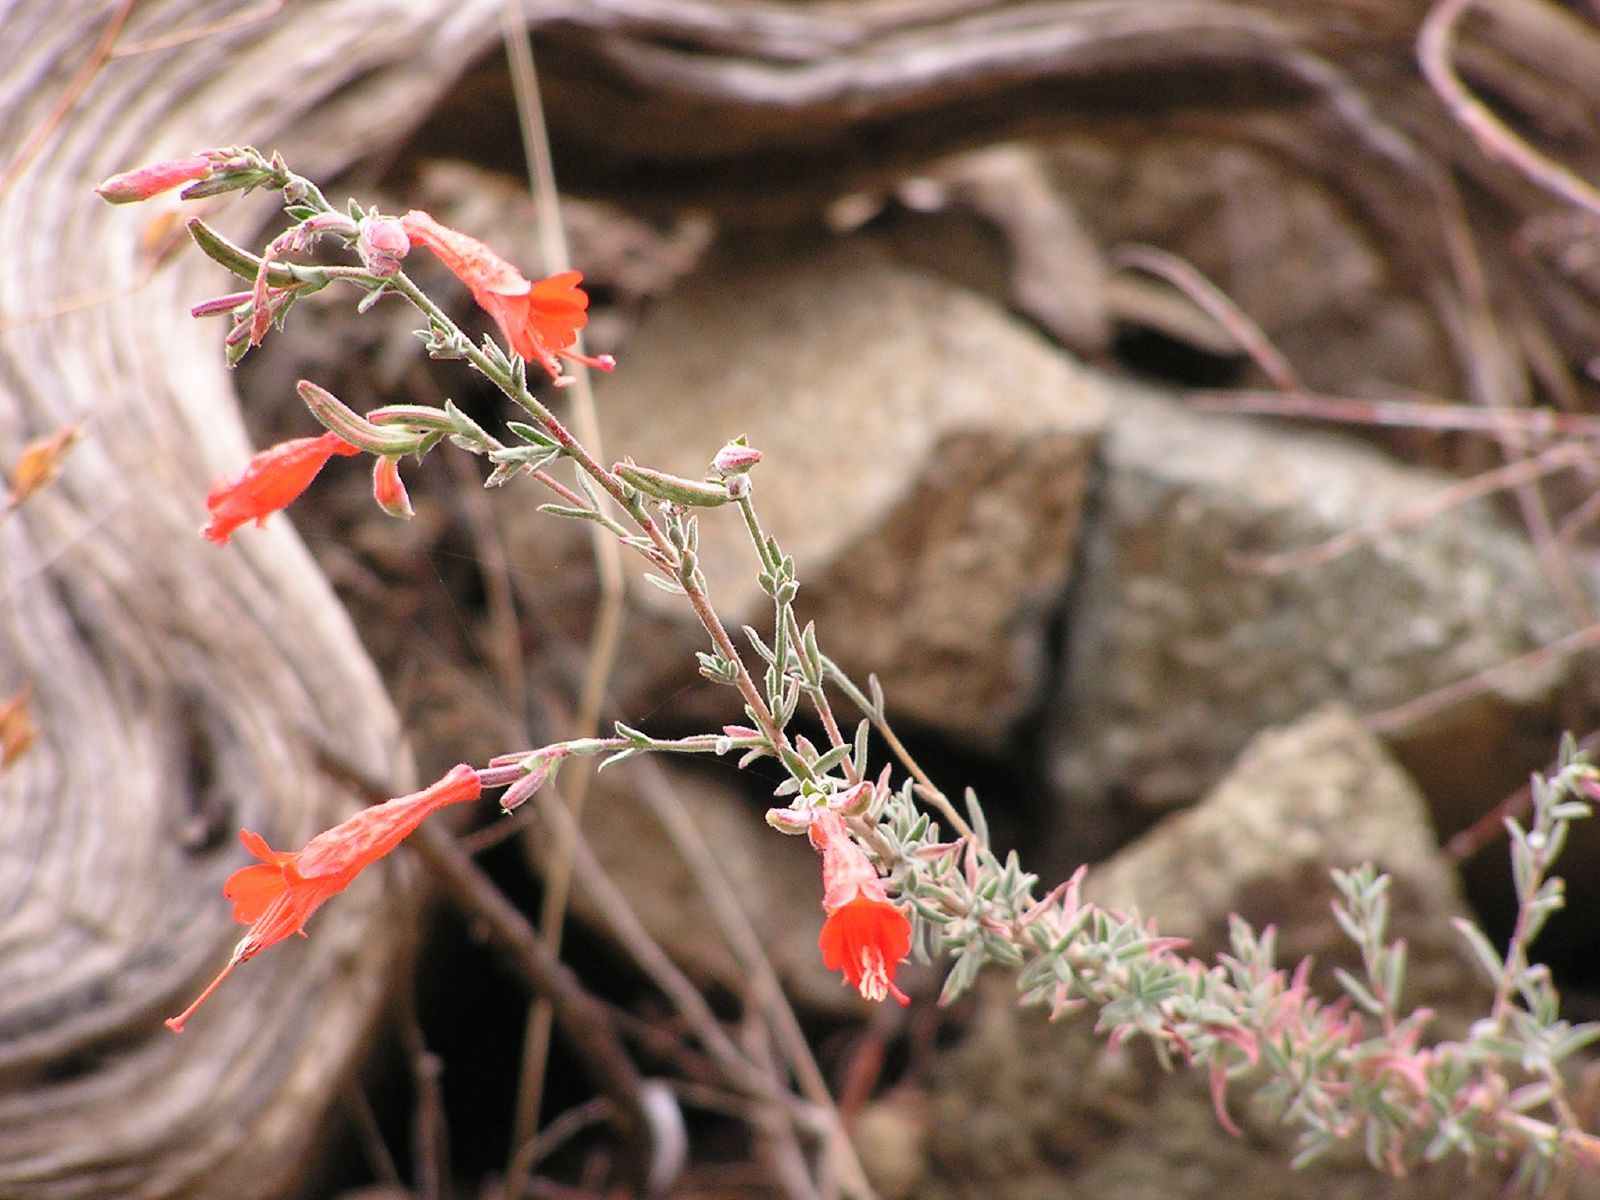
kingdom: Plantae
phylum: Tracheophyta
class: Magnoliopsida
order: Myrtales
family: Onagraceae
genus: Epilobium
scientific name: Epilobium canum
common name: California-fuchsia
